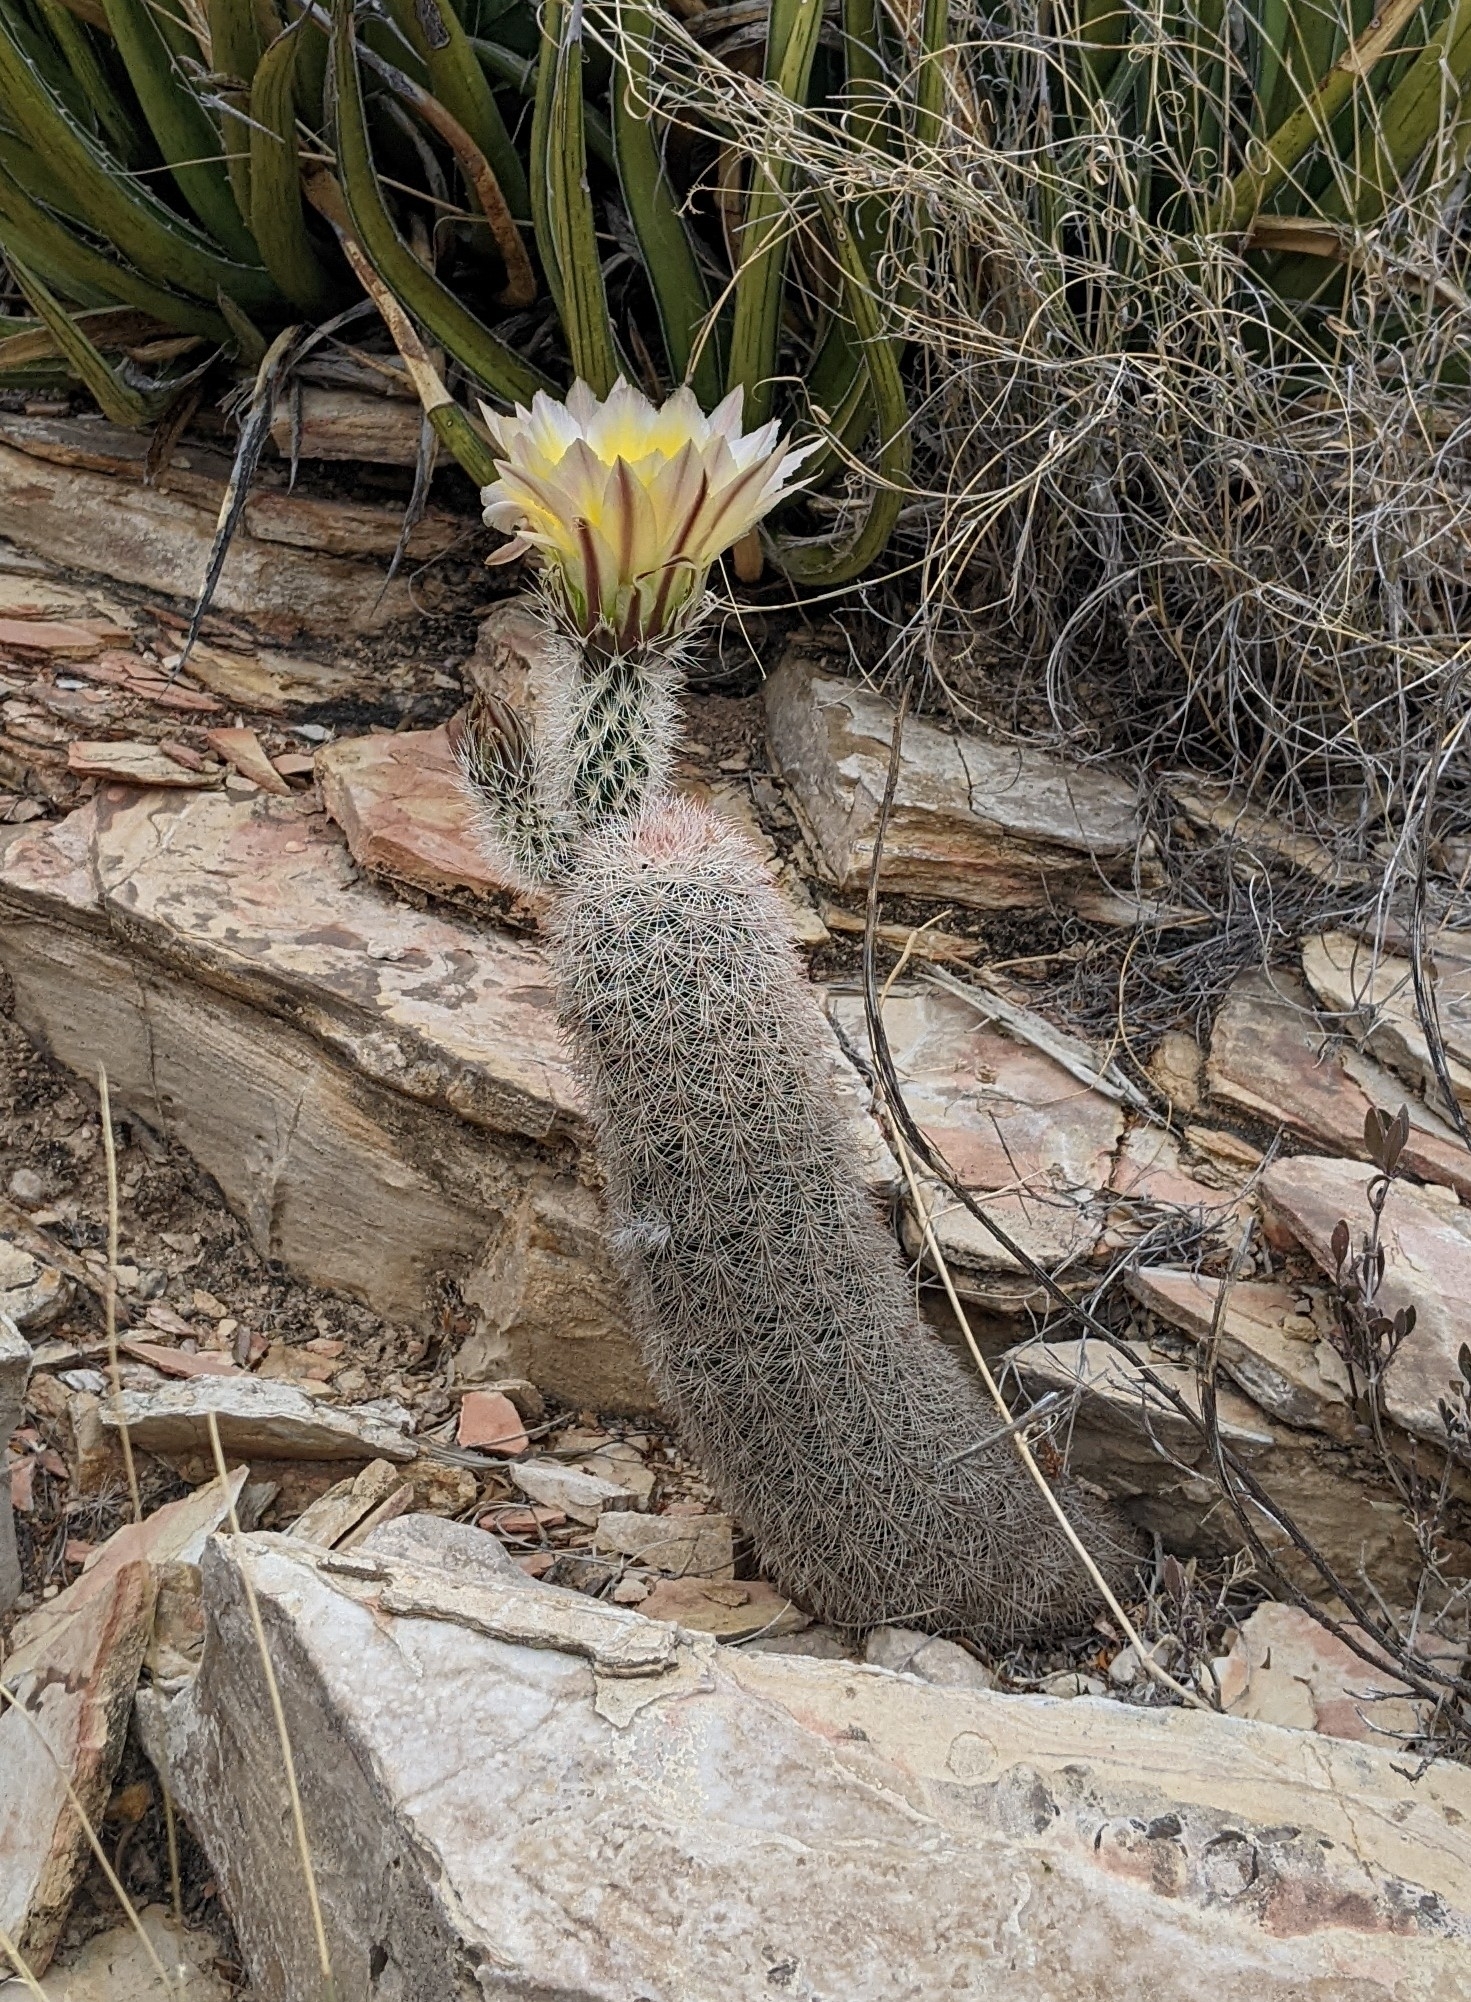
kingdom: Plantae
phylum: Tracheophyta
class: Magnoliopsida
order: Caryophyllales
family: Cactaceae
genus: Echinocereus
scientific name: Echinocereus dasyacanthus
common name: Spiny hedgehog cactus
